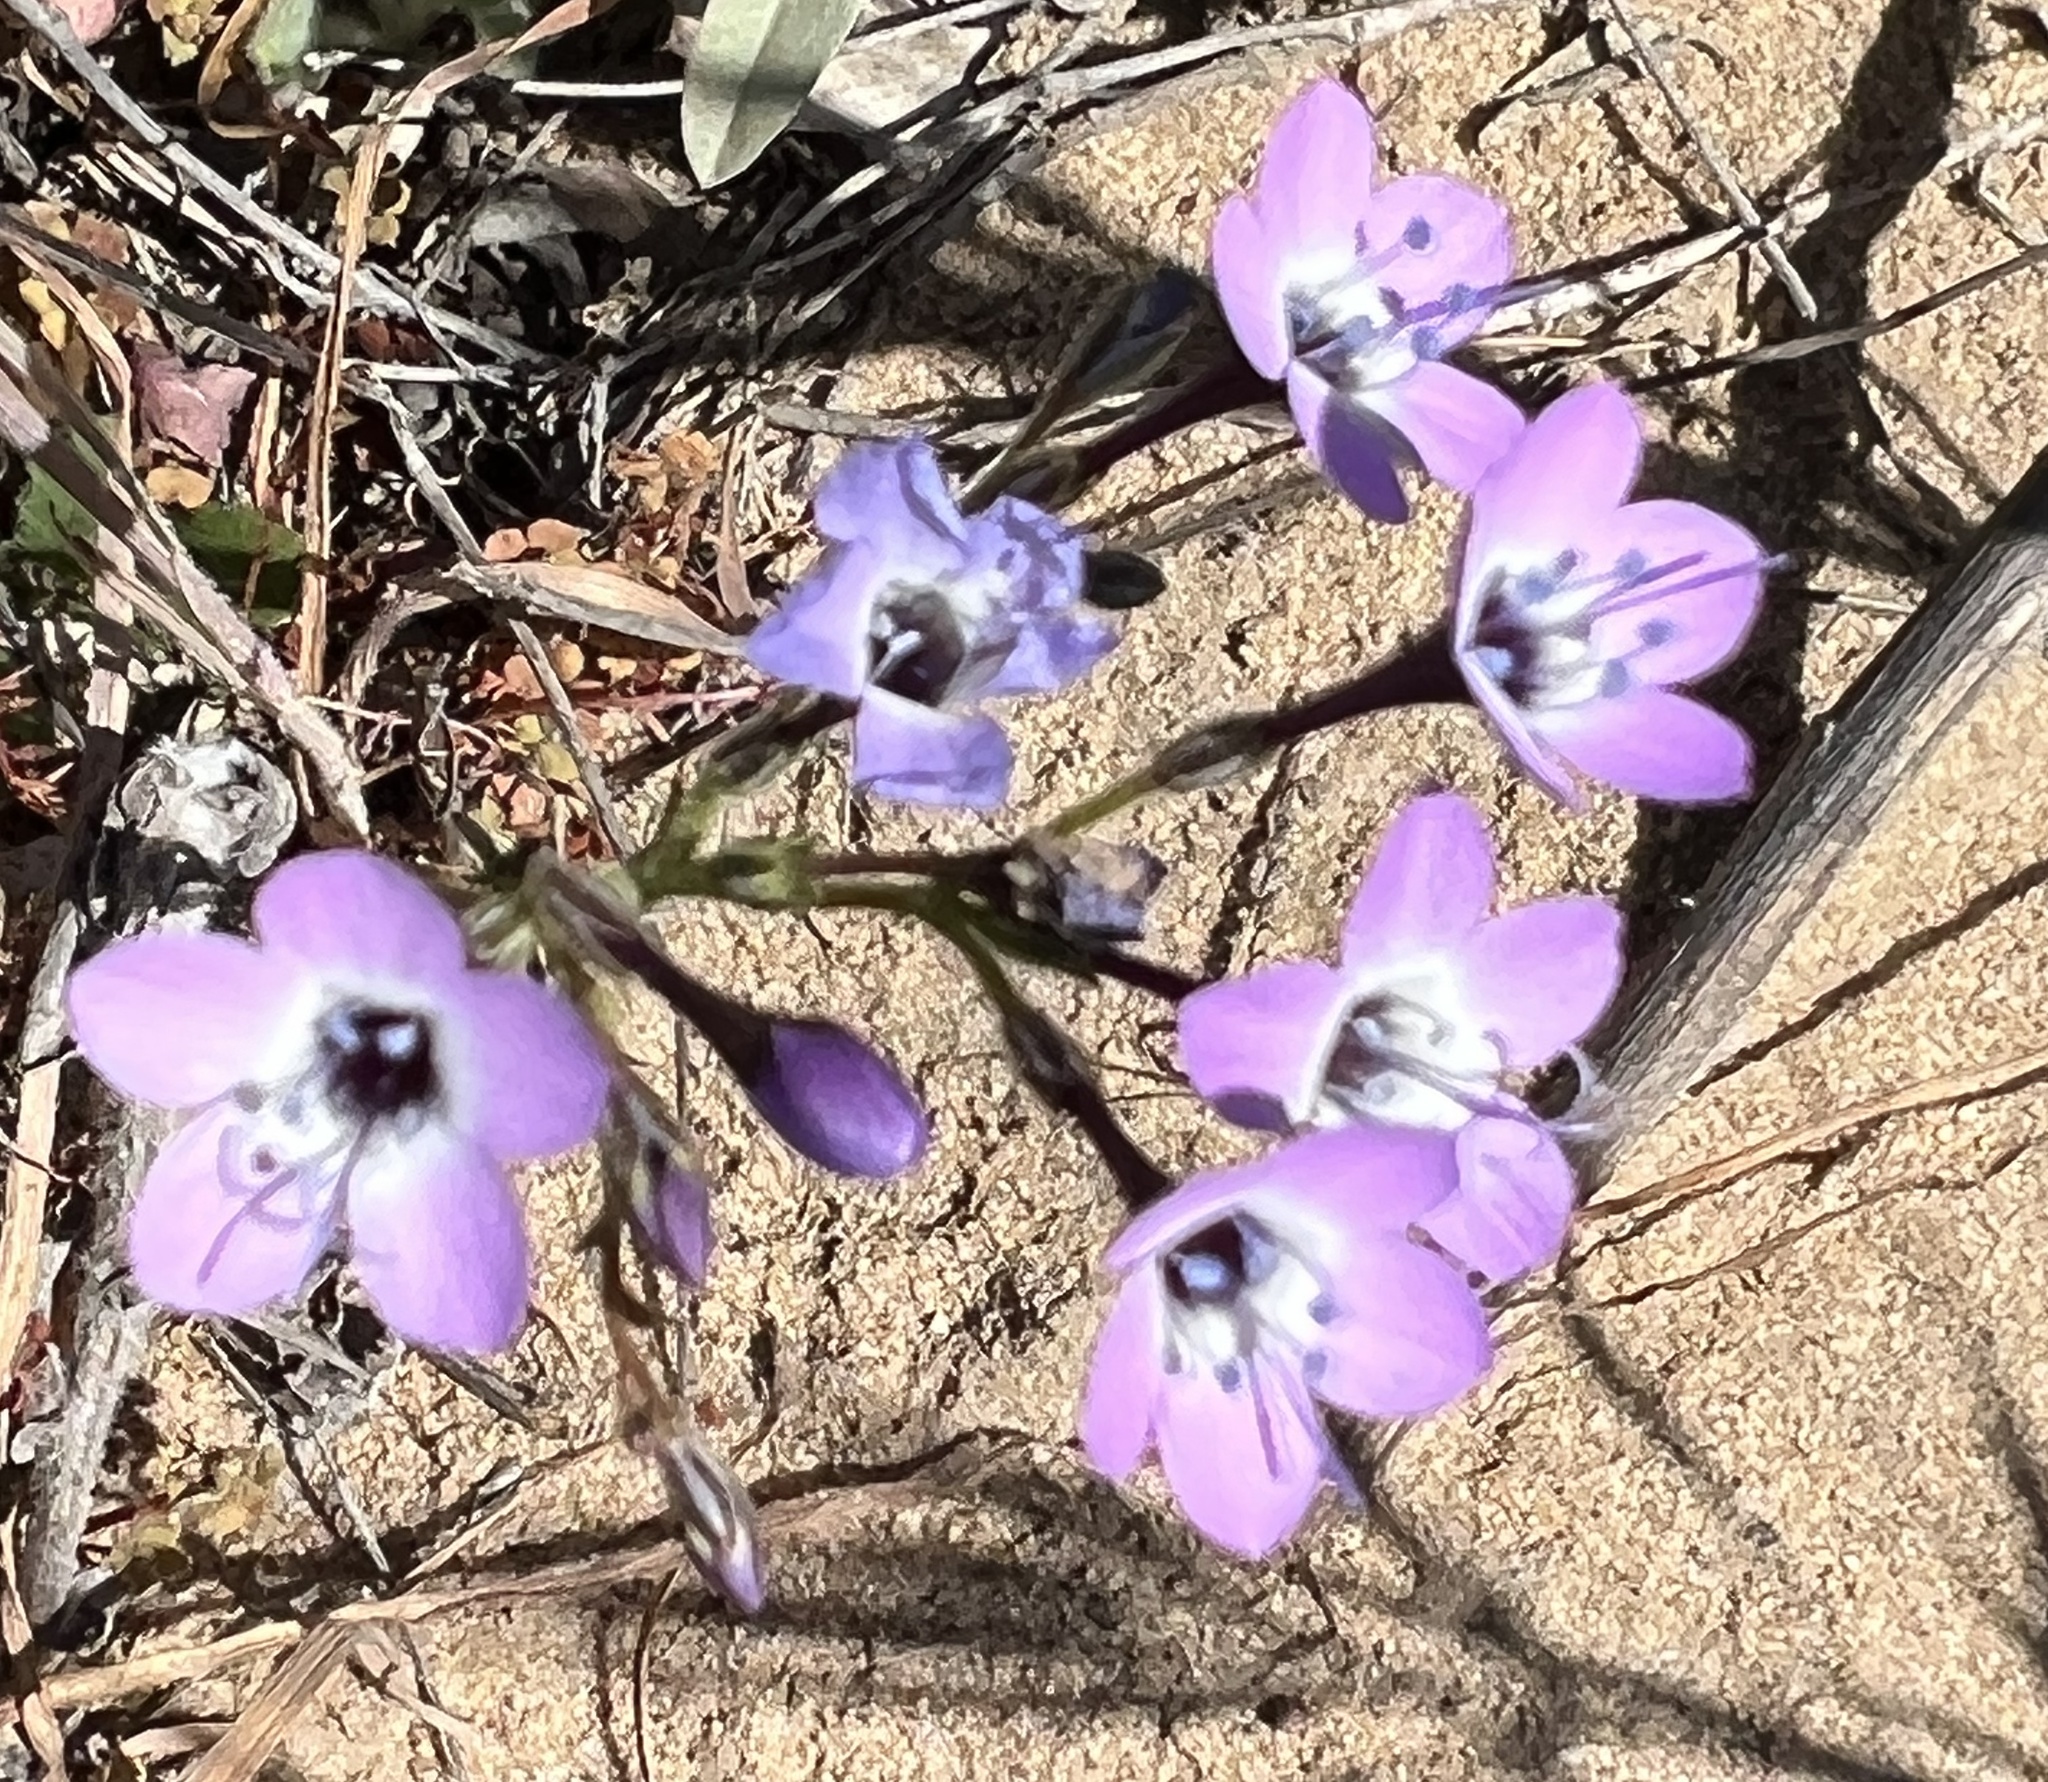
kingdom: Plantae
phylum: Tracheophyta
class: Magnoliopsida
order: Ericales
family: Polemoniaceae
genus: Gilia
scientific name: Gilia tenuiflora
